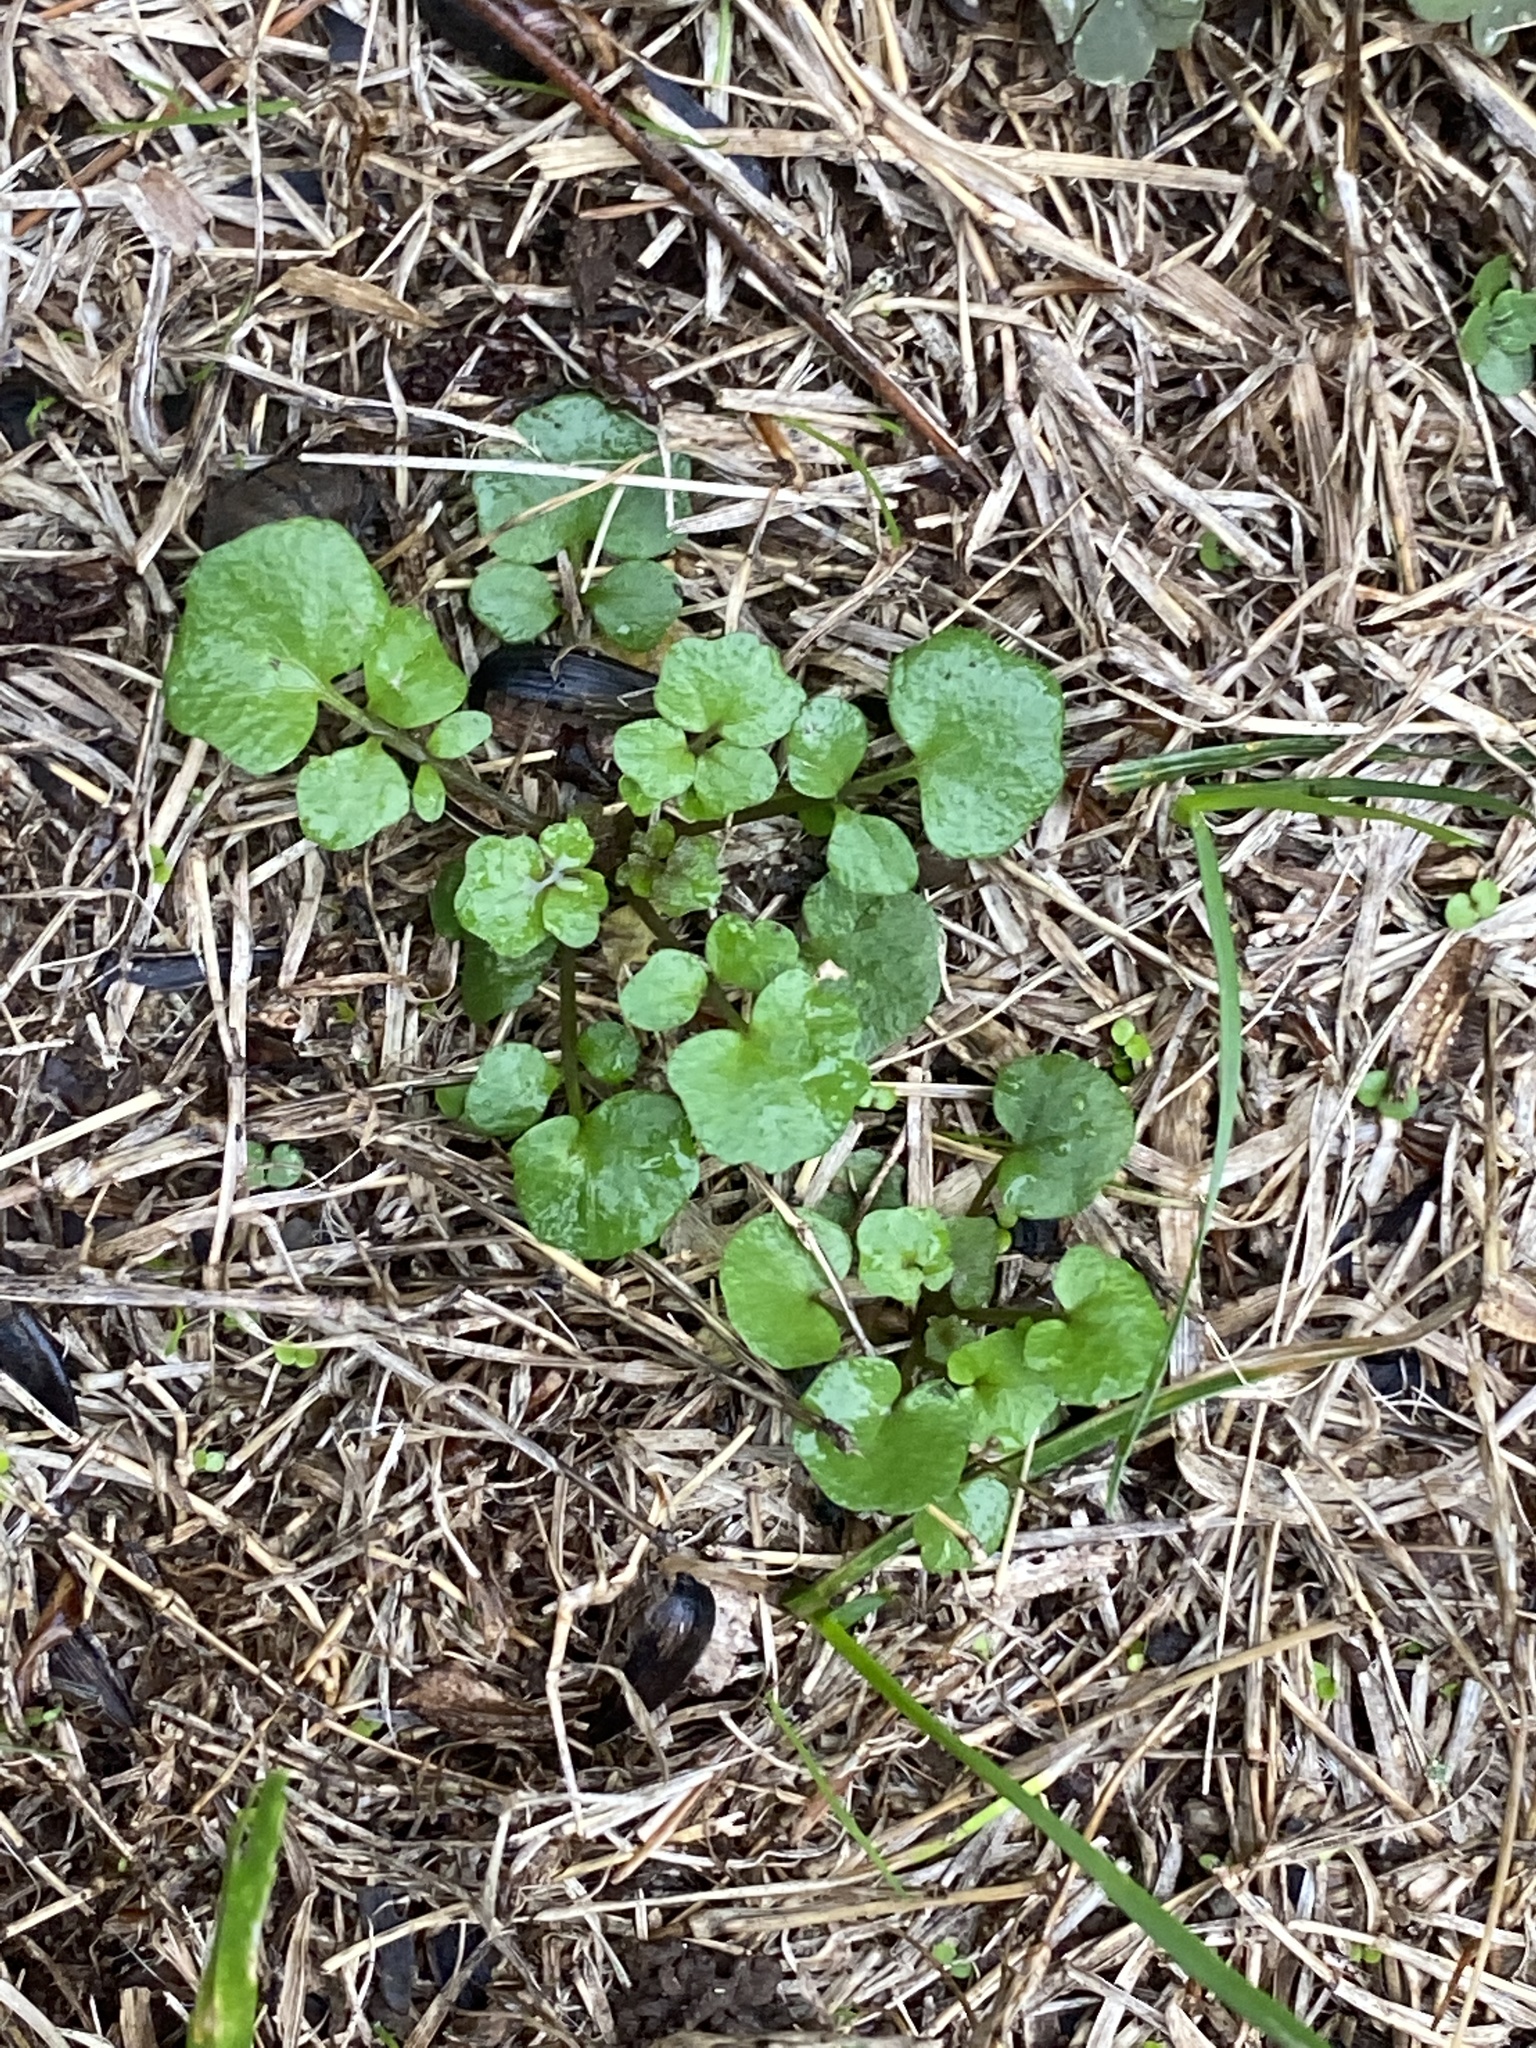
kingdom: Plantae
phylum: Tracheophyta
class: Magnoliopsida
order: Brassicales
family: Brassicaceae
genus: Cardamine
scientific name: Cardamine hirsuta
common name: Hairy bittercress
